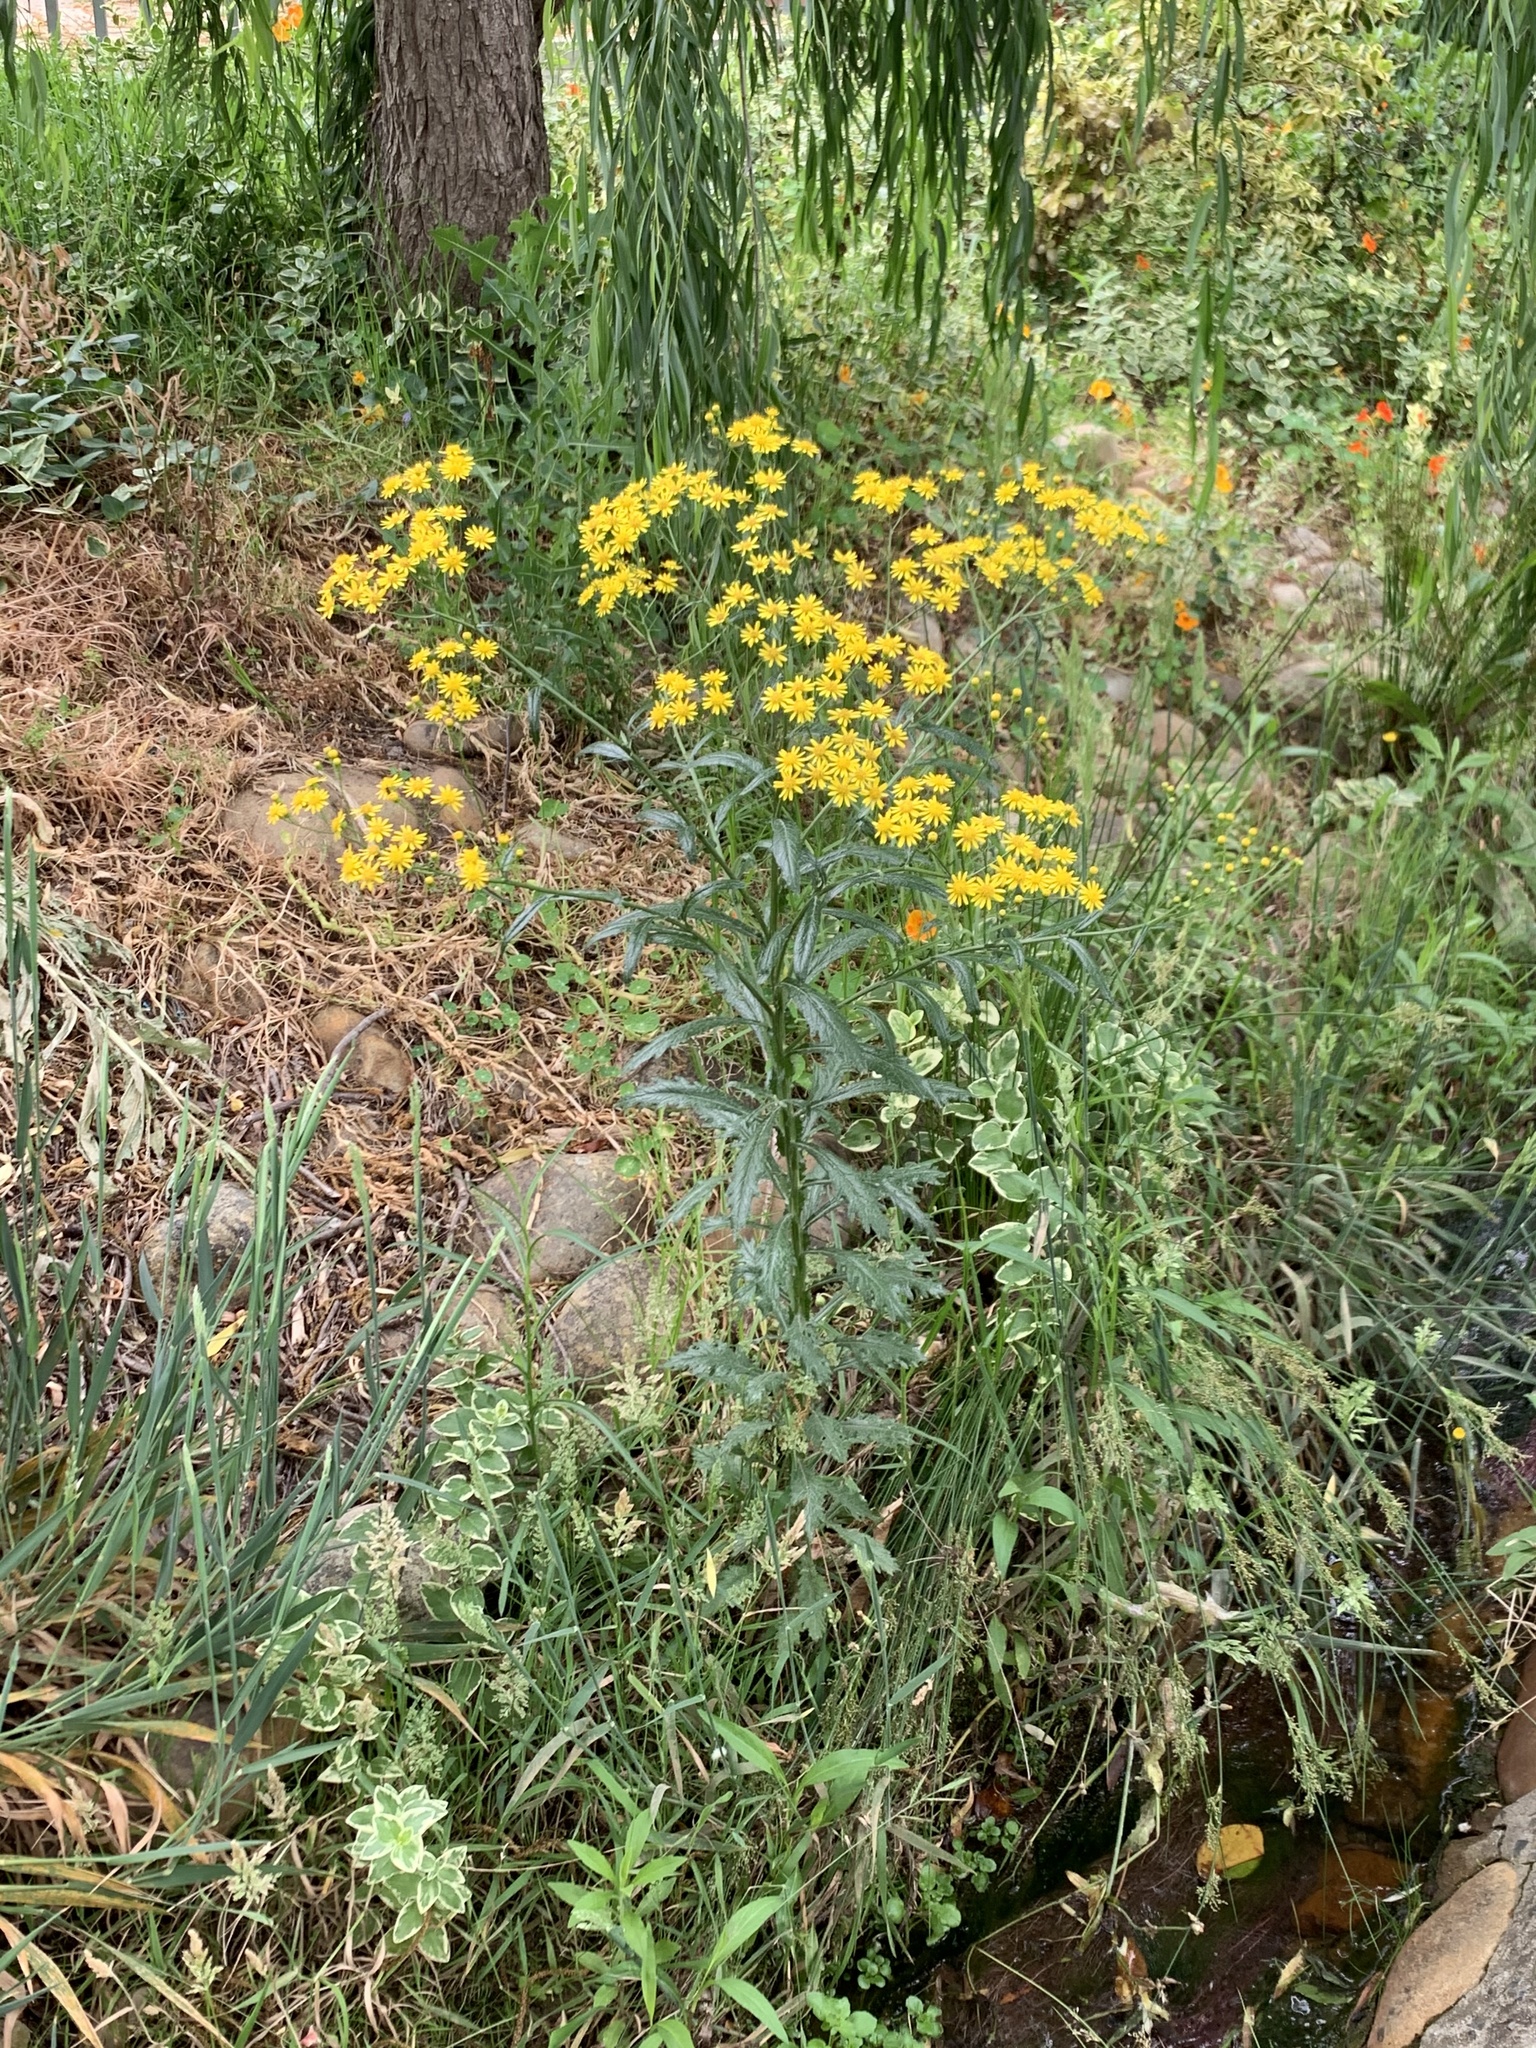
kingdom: Plantae
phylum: Tracheophyta
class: Magnoliopsida
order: Asterales
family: Asteraceae
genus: Senecio
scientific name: Senecio pterophorus
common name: Shoddy ragwort
